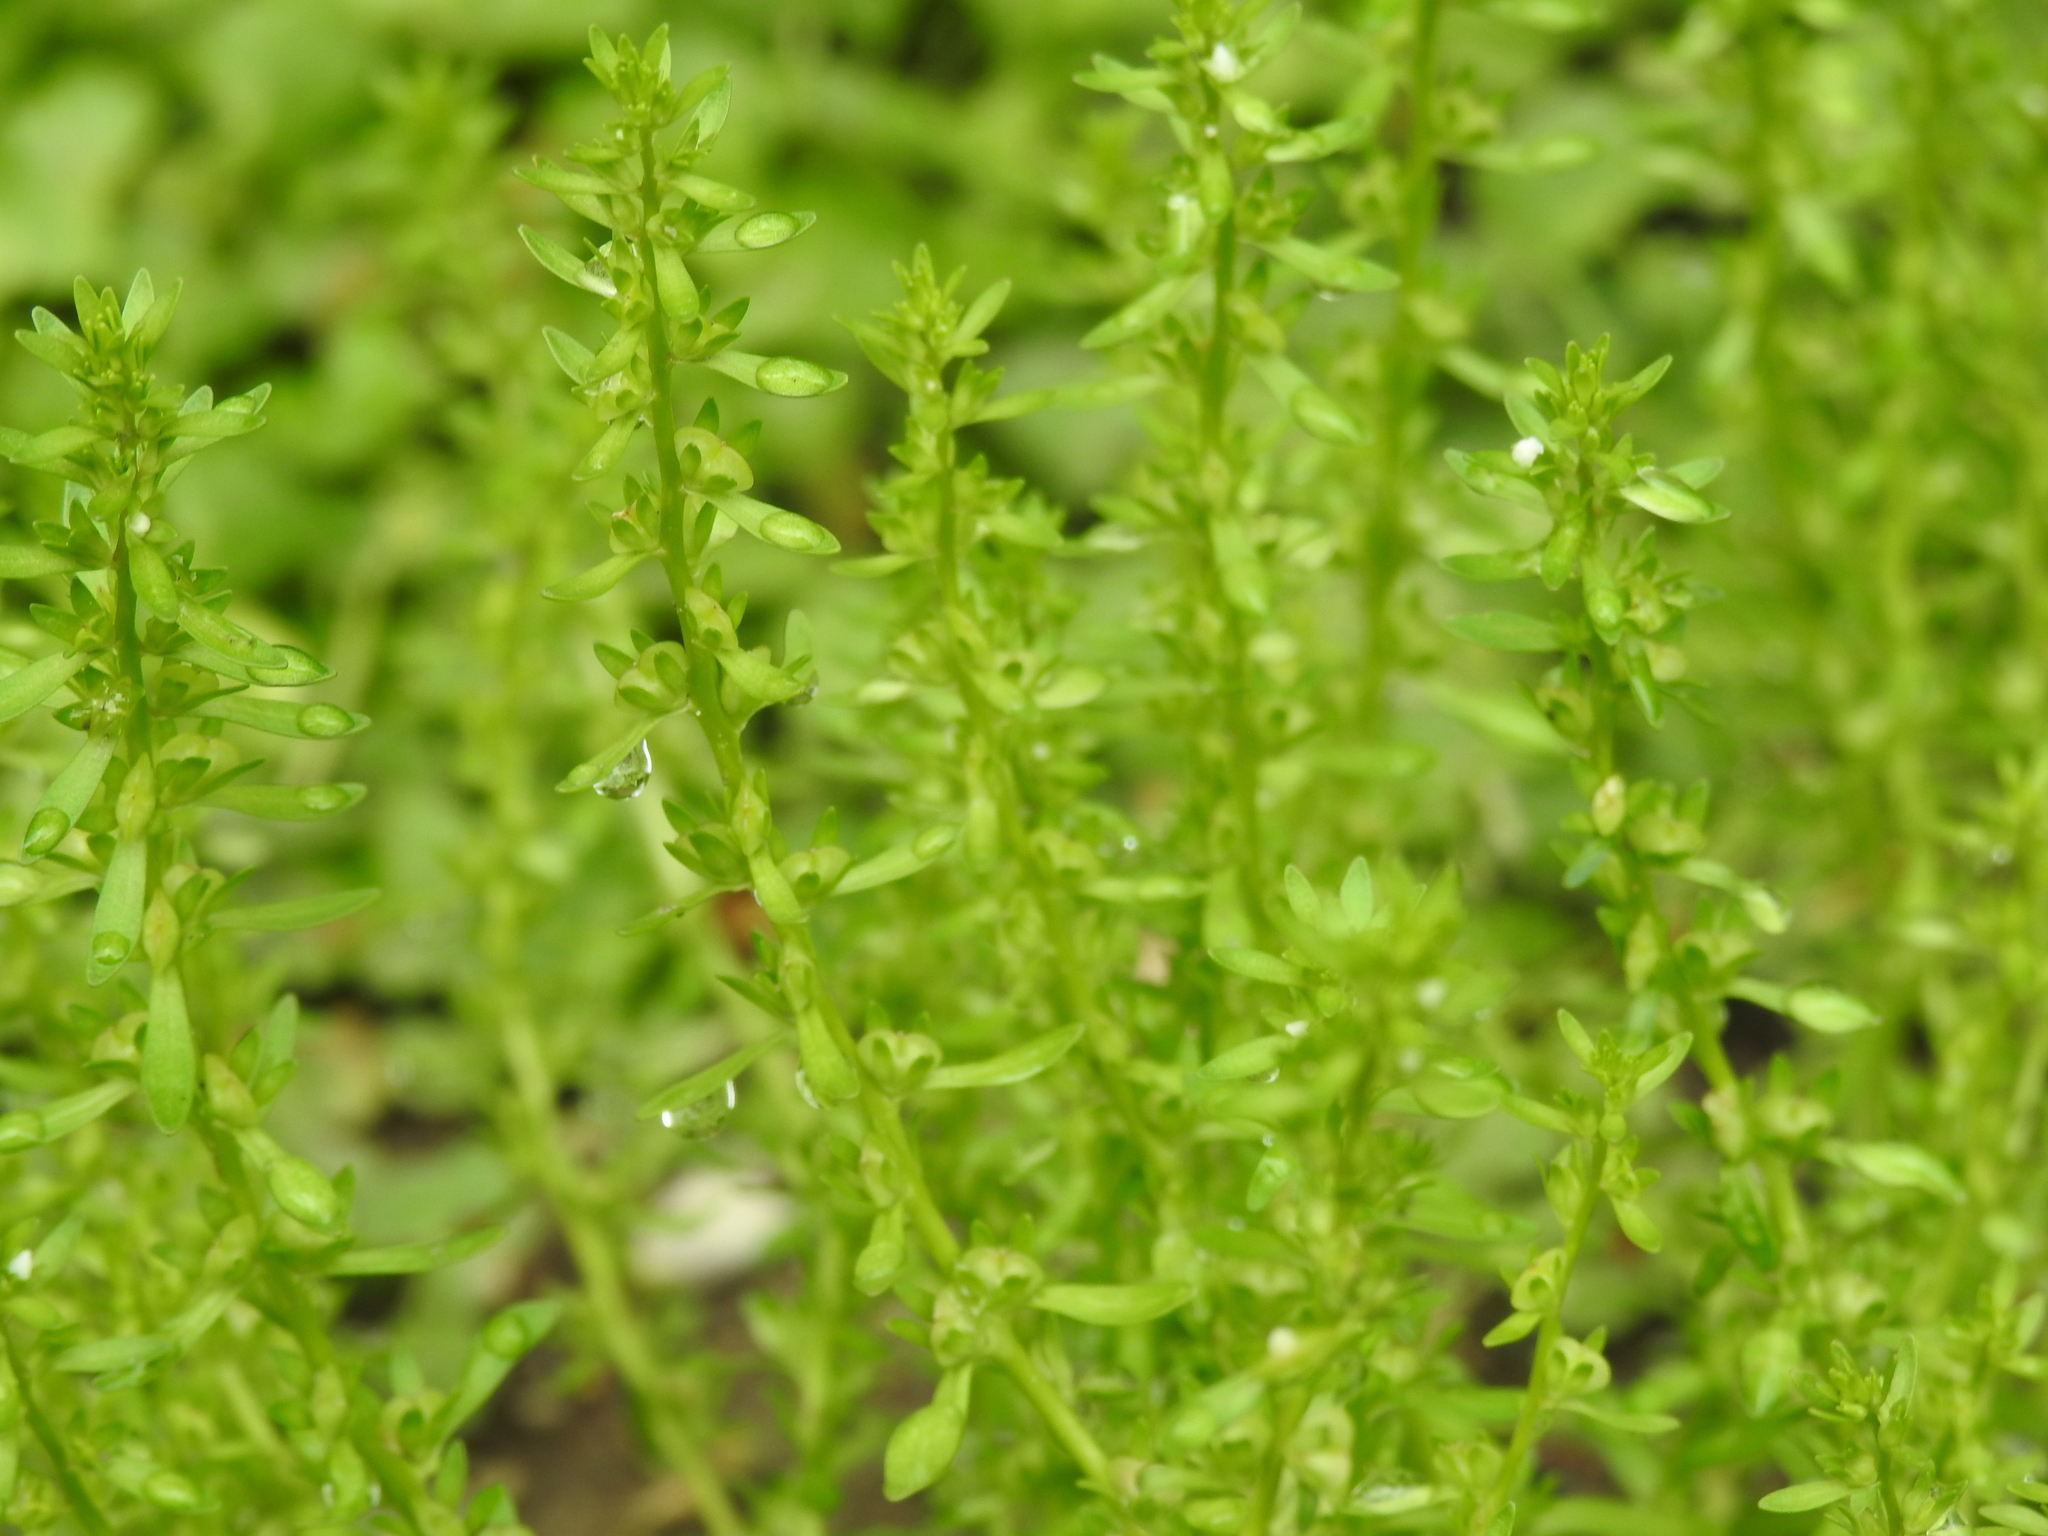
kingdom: Plantae
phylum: Tracheophyta
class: Magnoliopsida
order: Lamiales
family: Plantaginaceae
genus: Veronica
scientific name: Veronica peregrina
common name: Neckweed
